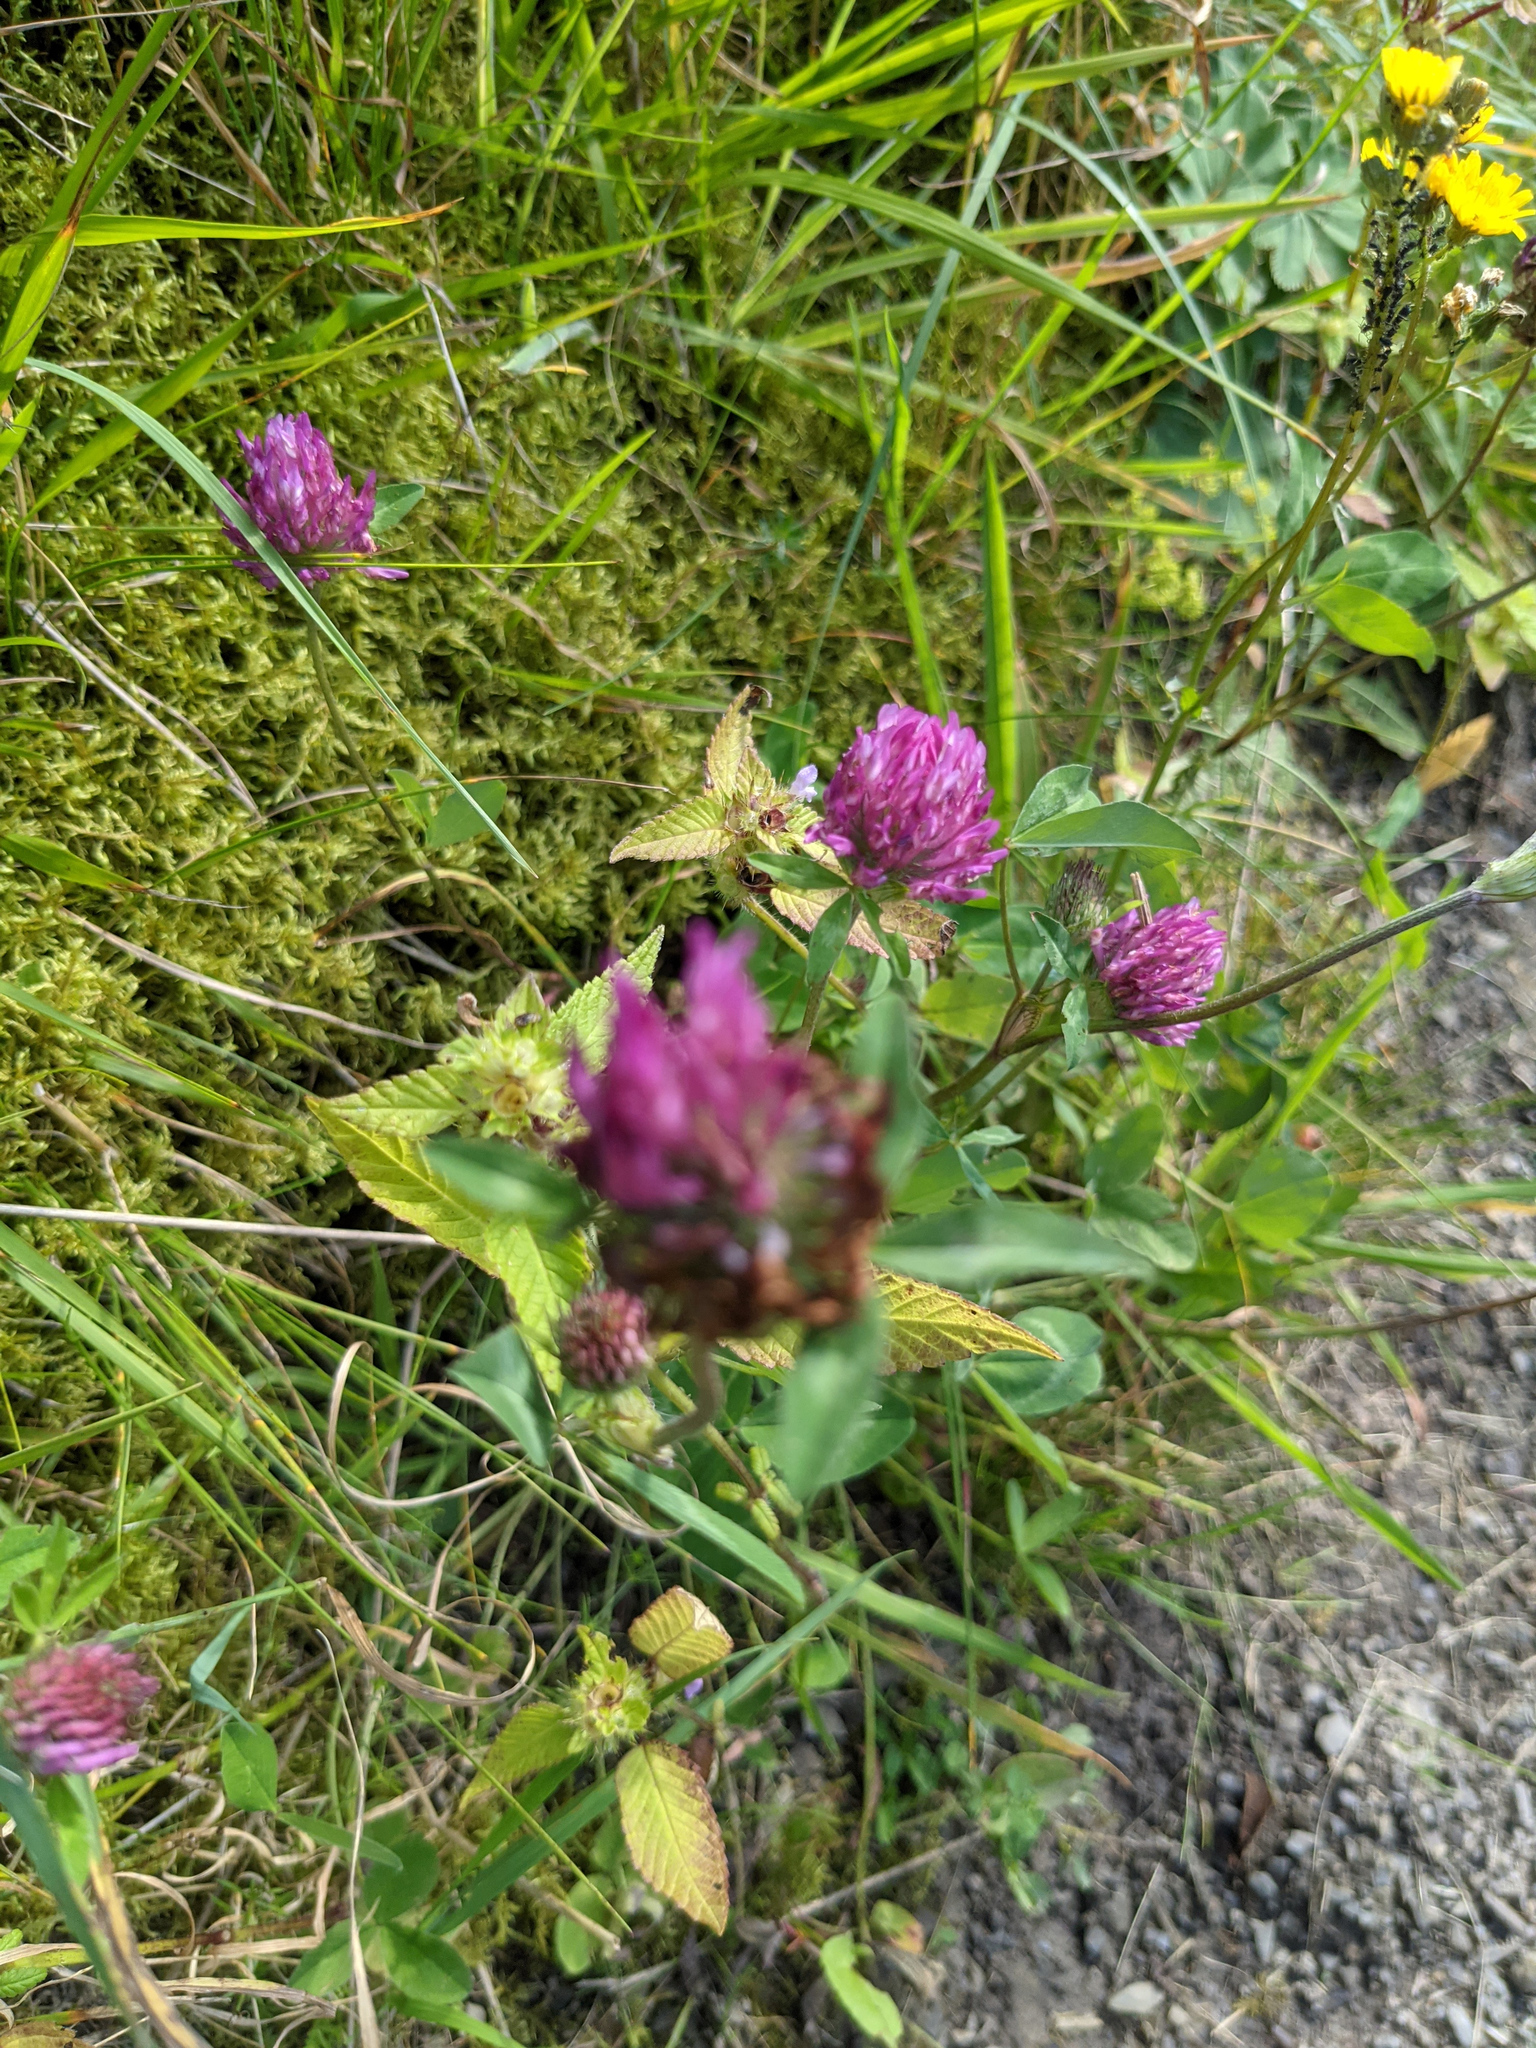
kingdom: Plantae
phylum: Tracheophyta
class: Magnoliopsida
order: Fabales
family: Fabaceae
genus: Trifolium
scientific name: Trifolium pratense
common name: Red clover
